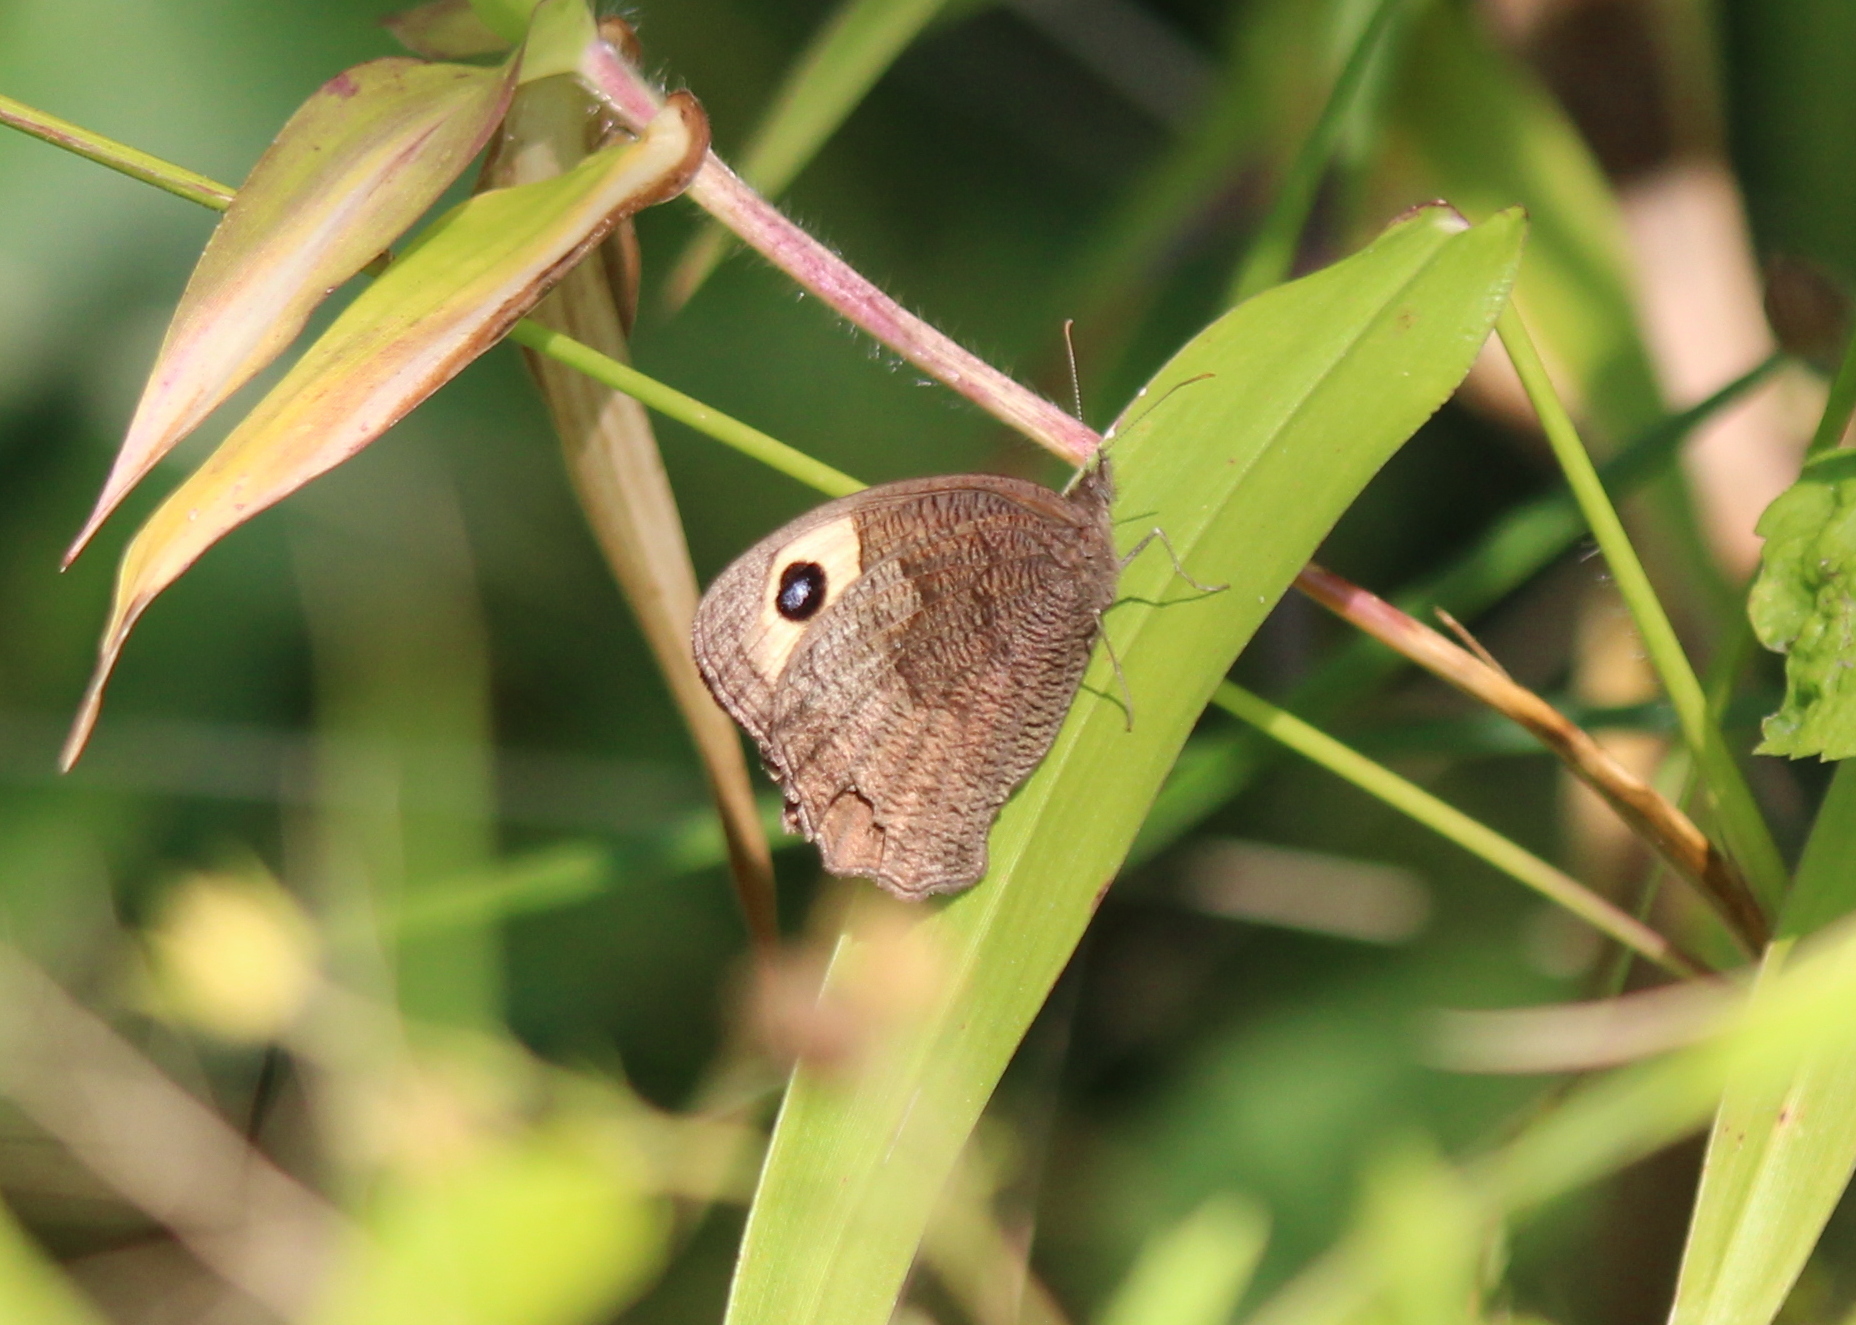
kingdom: Animalia
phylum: Arthropoda
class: Insecta
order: Lepidoptera
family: Nymphalidae
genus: Cercyonis
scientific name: Cercyonis pegala
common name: Common wood-nymph
